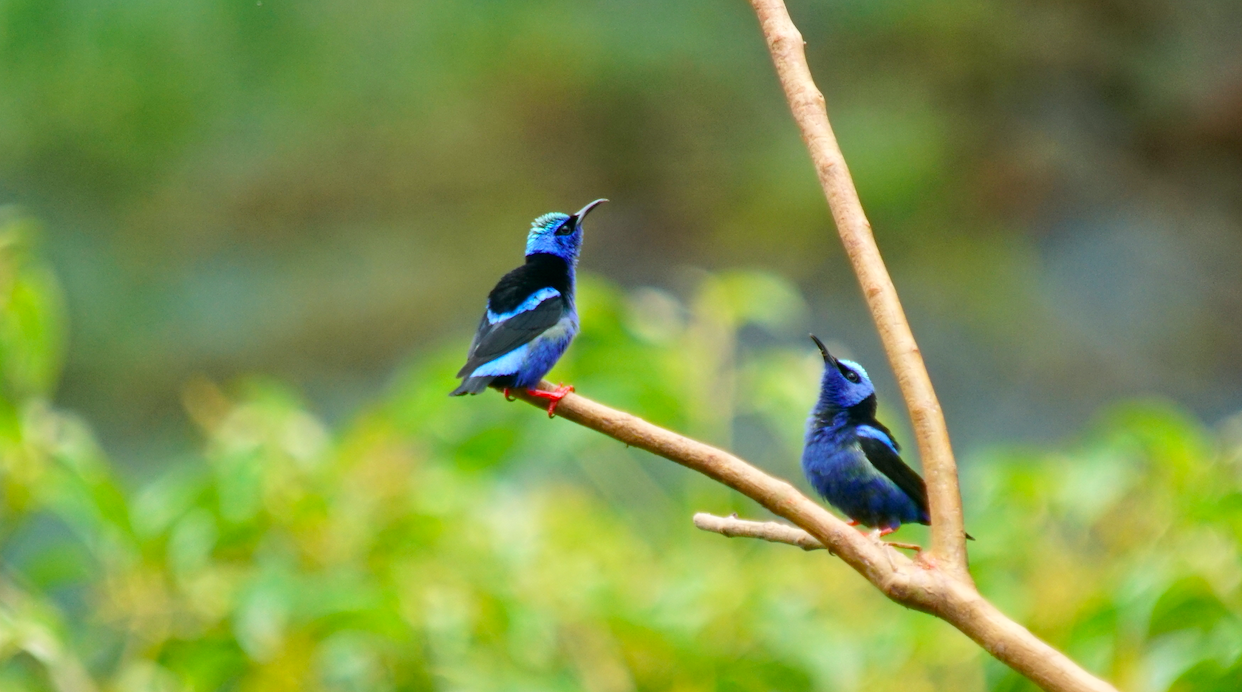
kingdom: Animalia
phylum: Chordata
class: Aves
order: Passeriformes
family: Thraupidae
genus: Cyanerpes
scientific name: Cyanerpes cyaneus
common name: Red-legged honeycreeper
